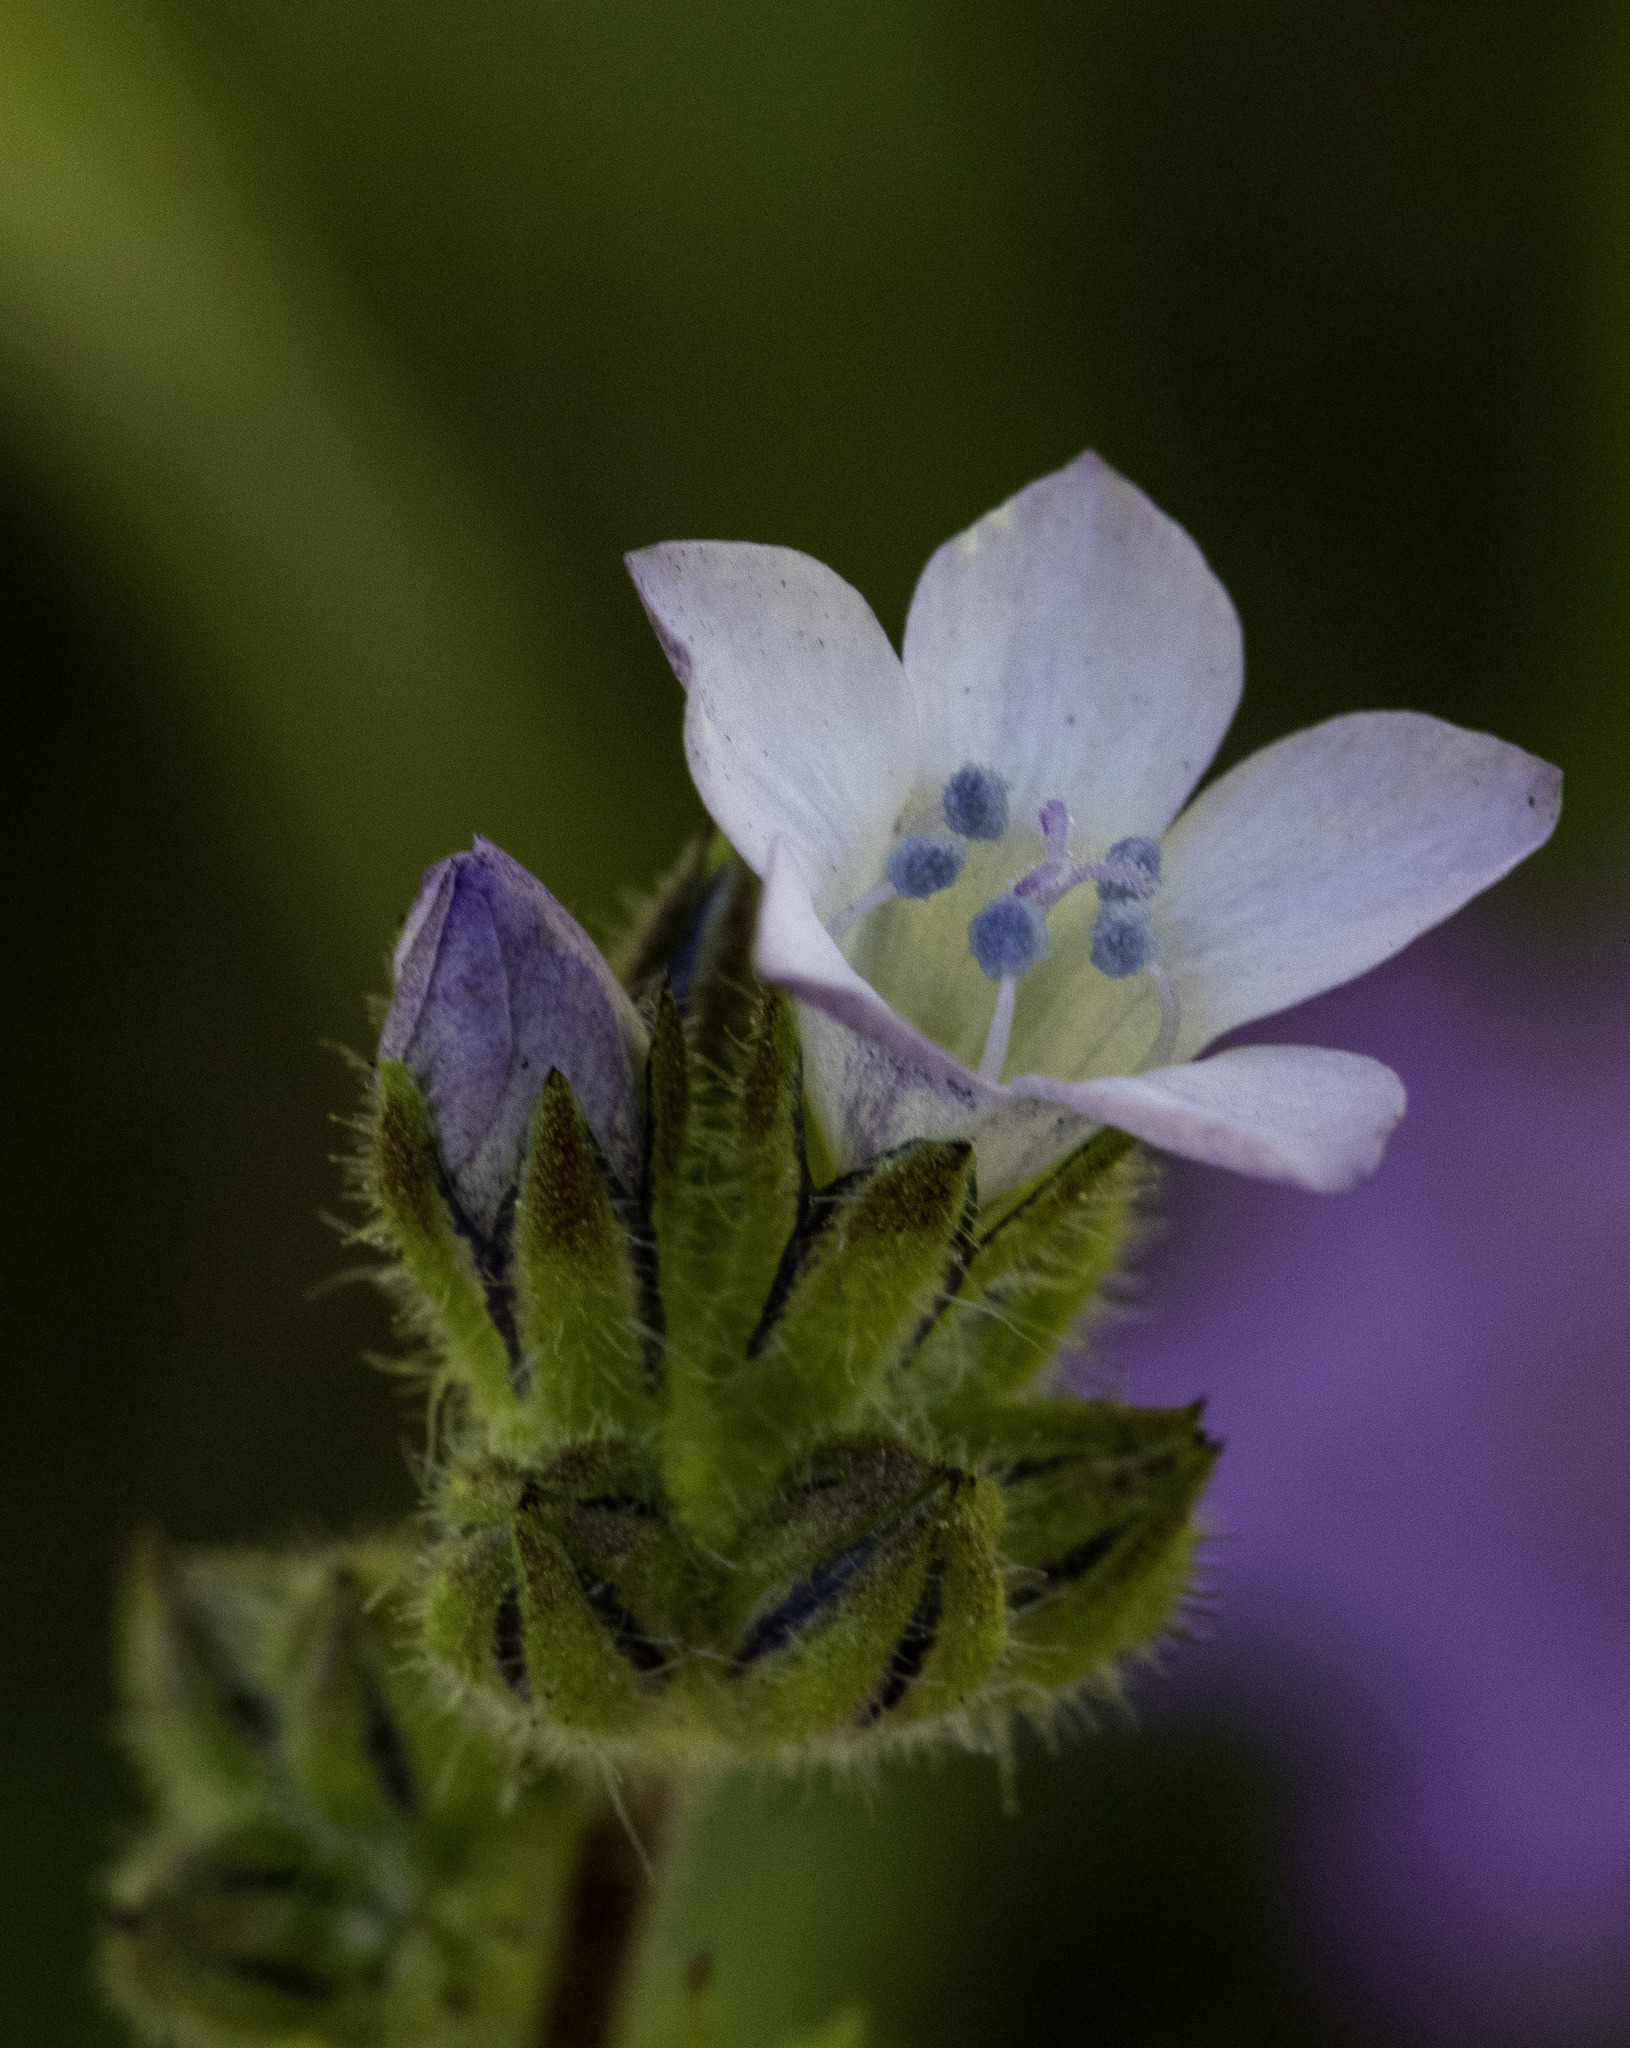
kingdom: Plantae
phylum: Tracheophyta
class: Magnoliopsida
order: Ericales
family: Polemoniaceae
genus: Gilia
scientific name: Gilia angelensis
